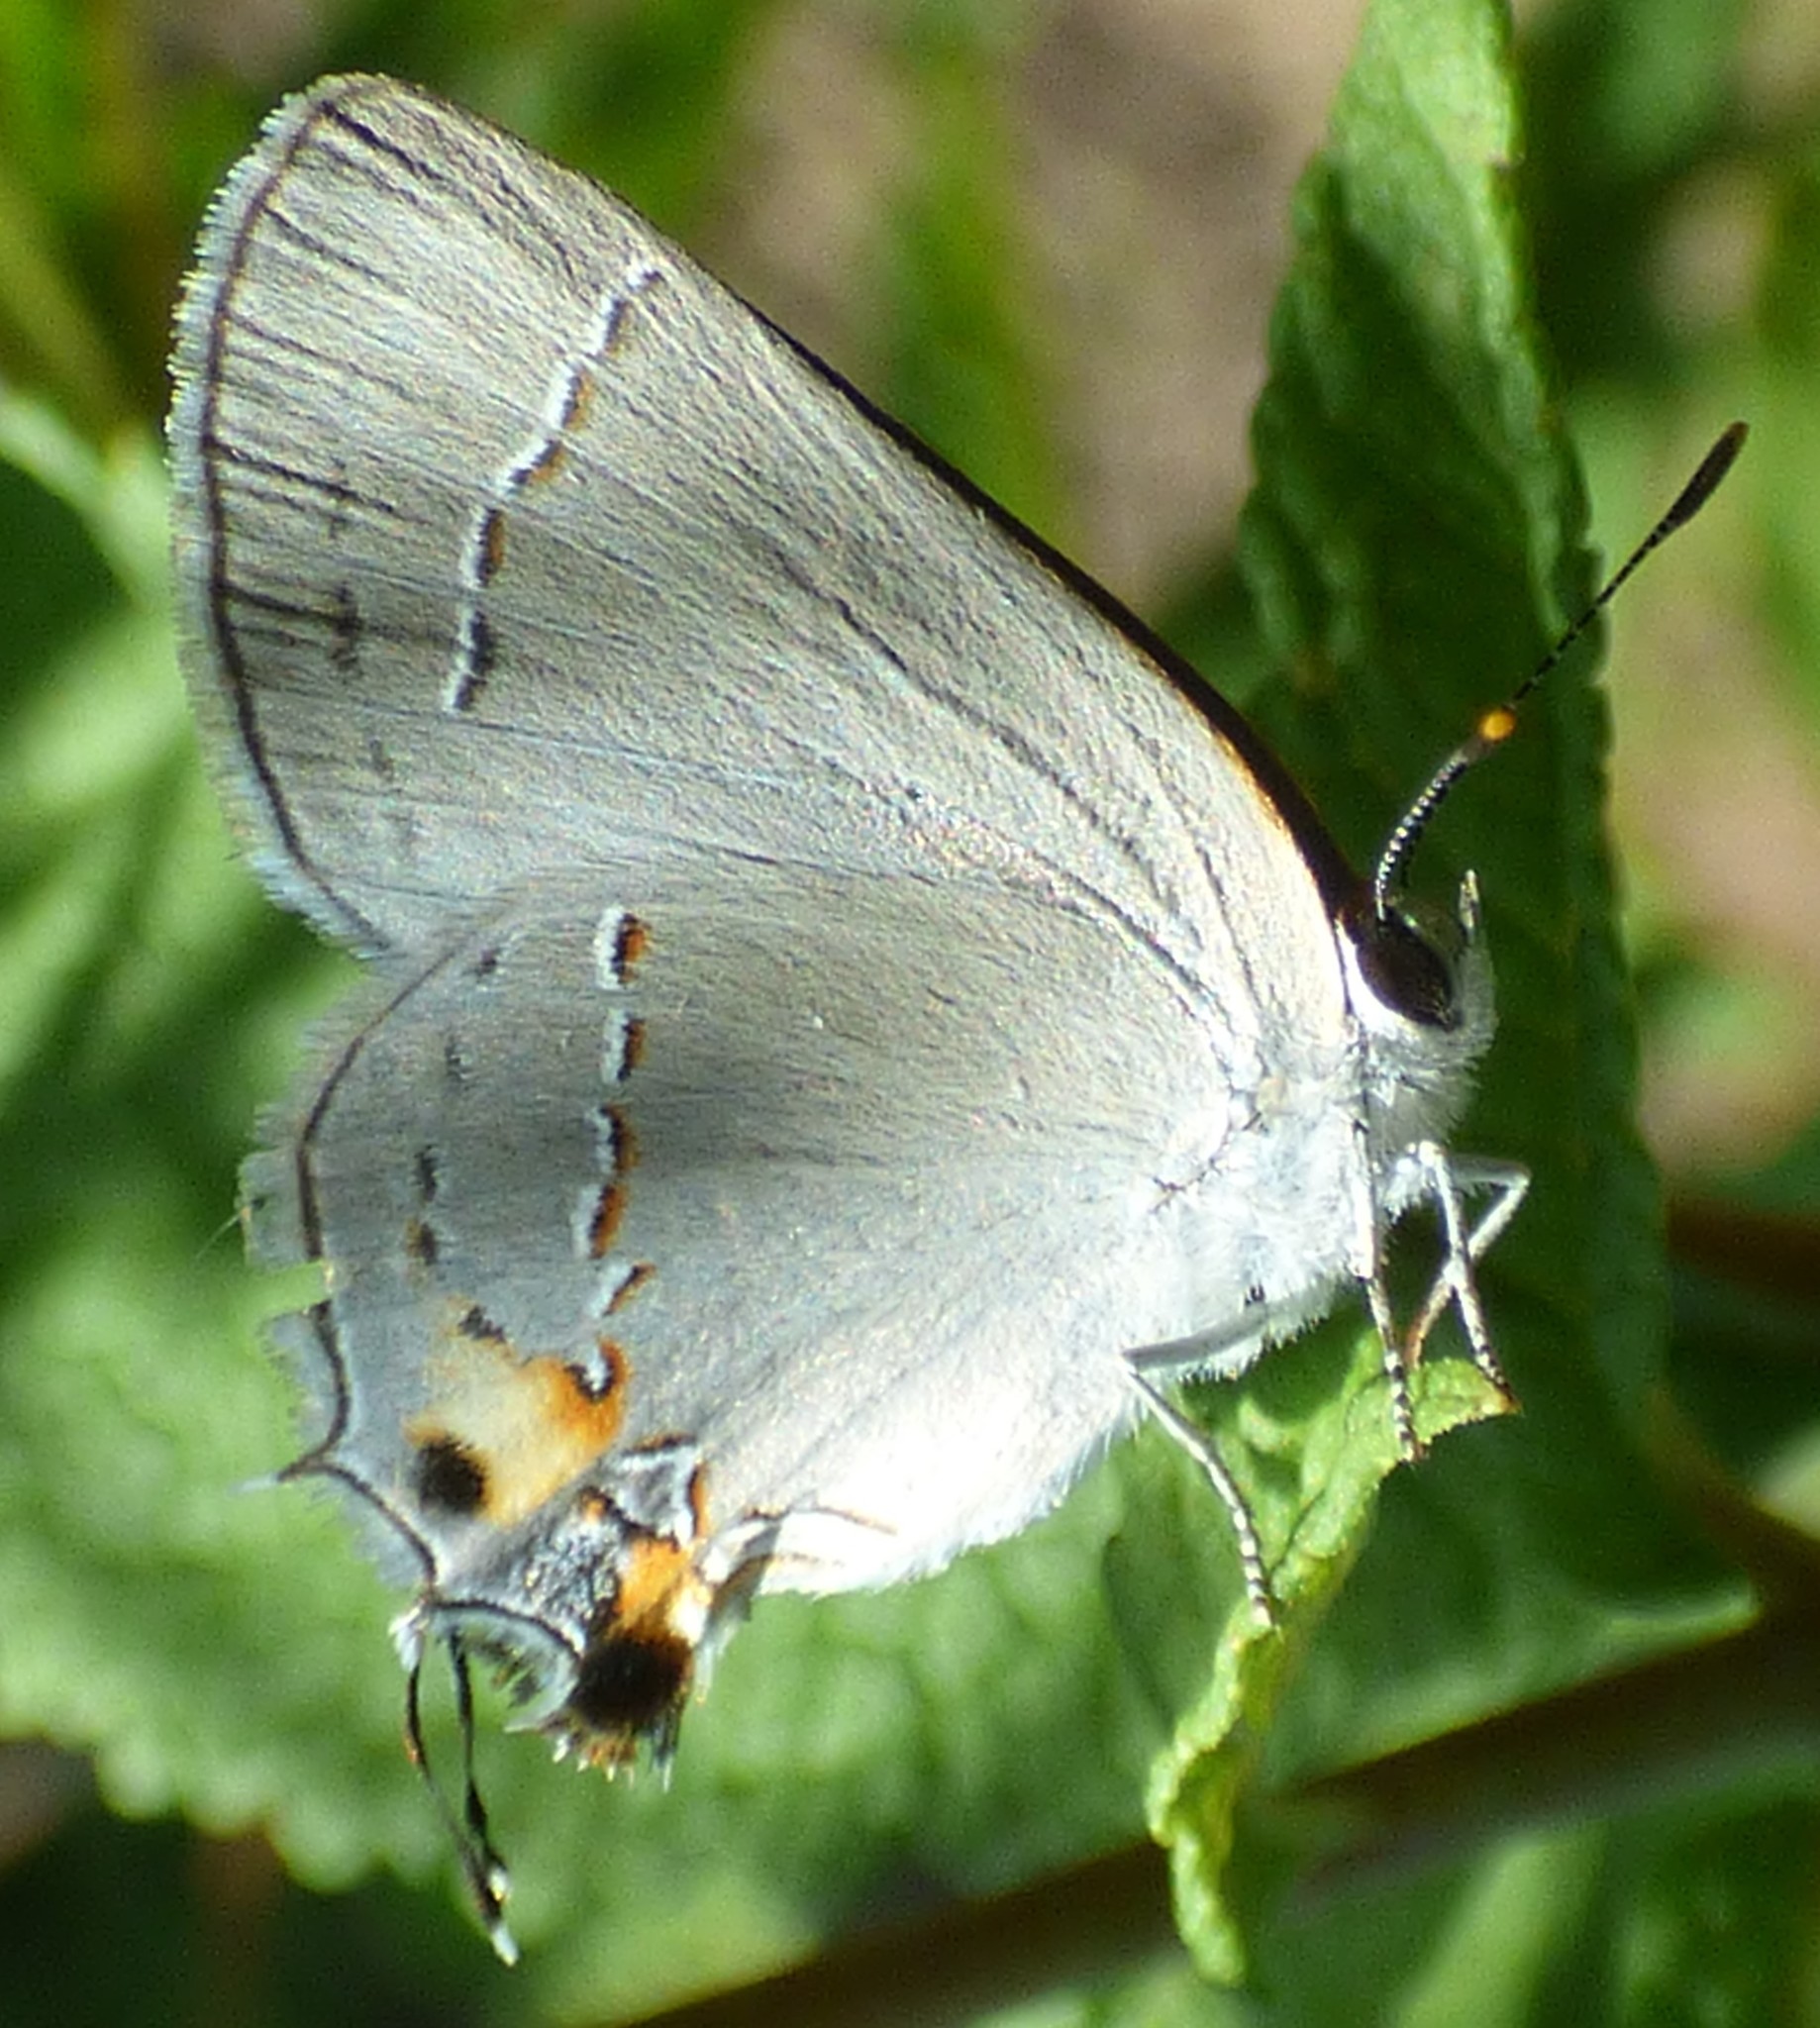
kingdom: Animalia
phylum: Arthropoda
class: Insecta
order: Lepidoptera
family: Lycaenidae
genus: Strymon
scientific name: Strymon melinus
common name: Gray hairstreak
